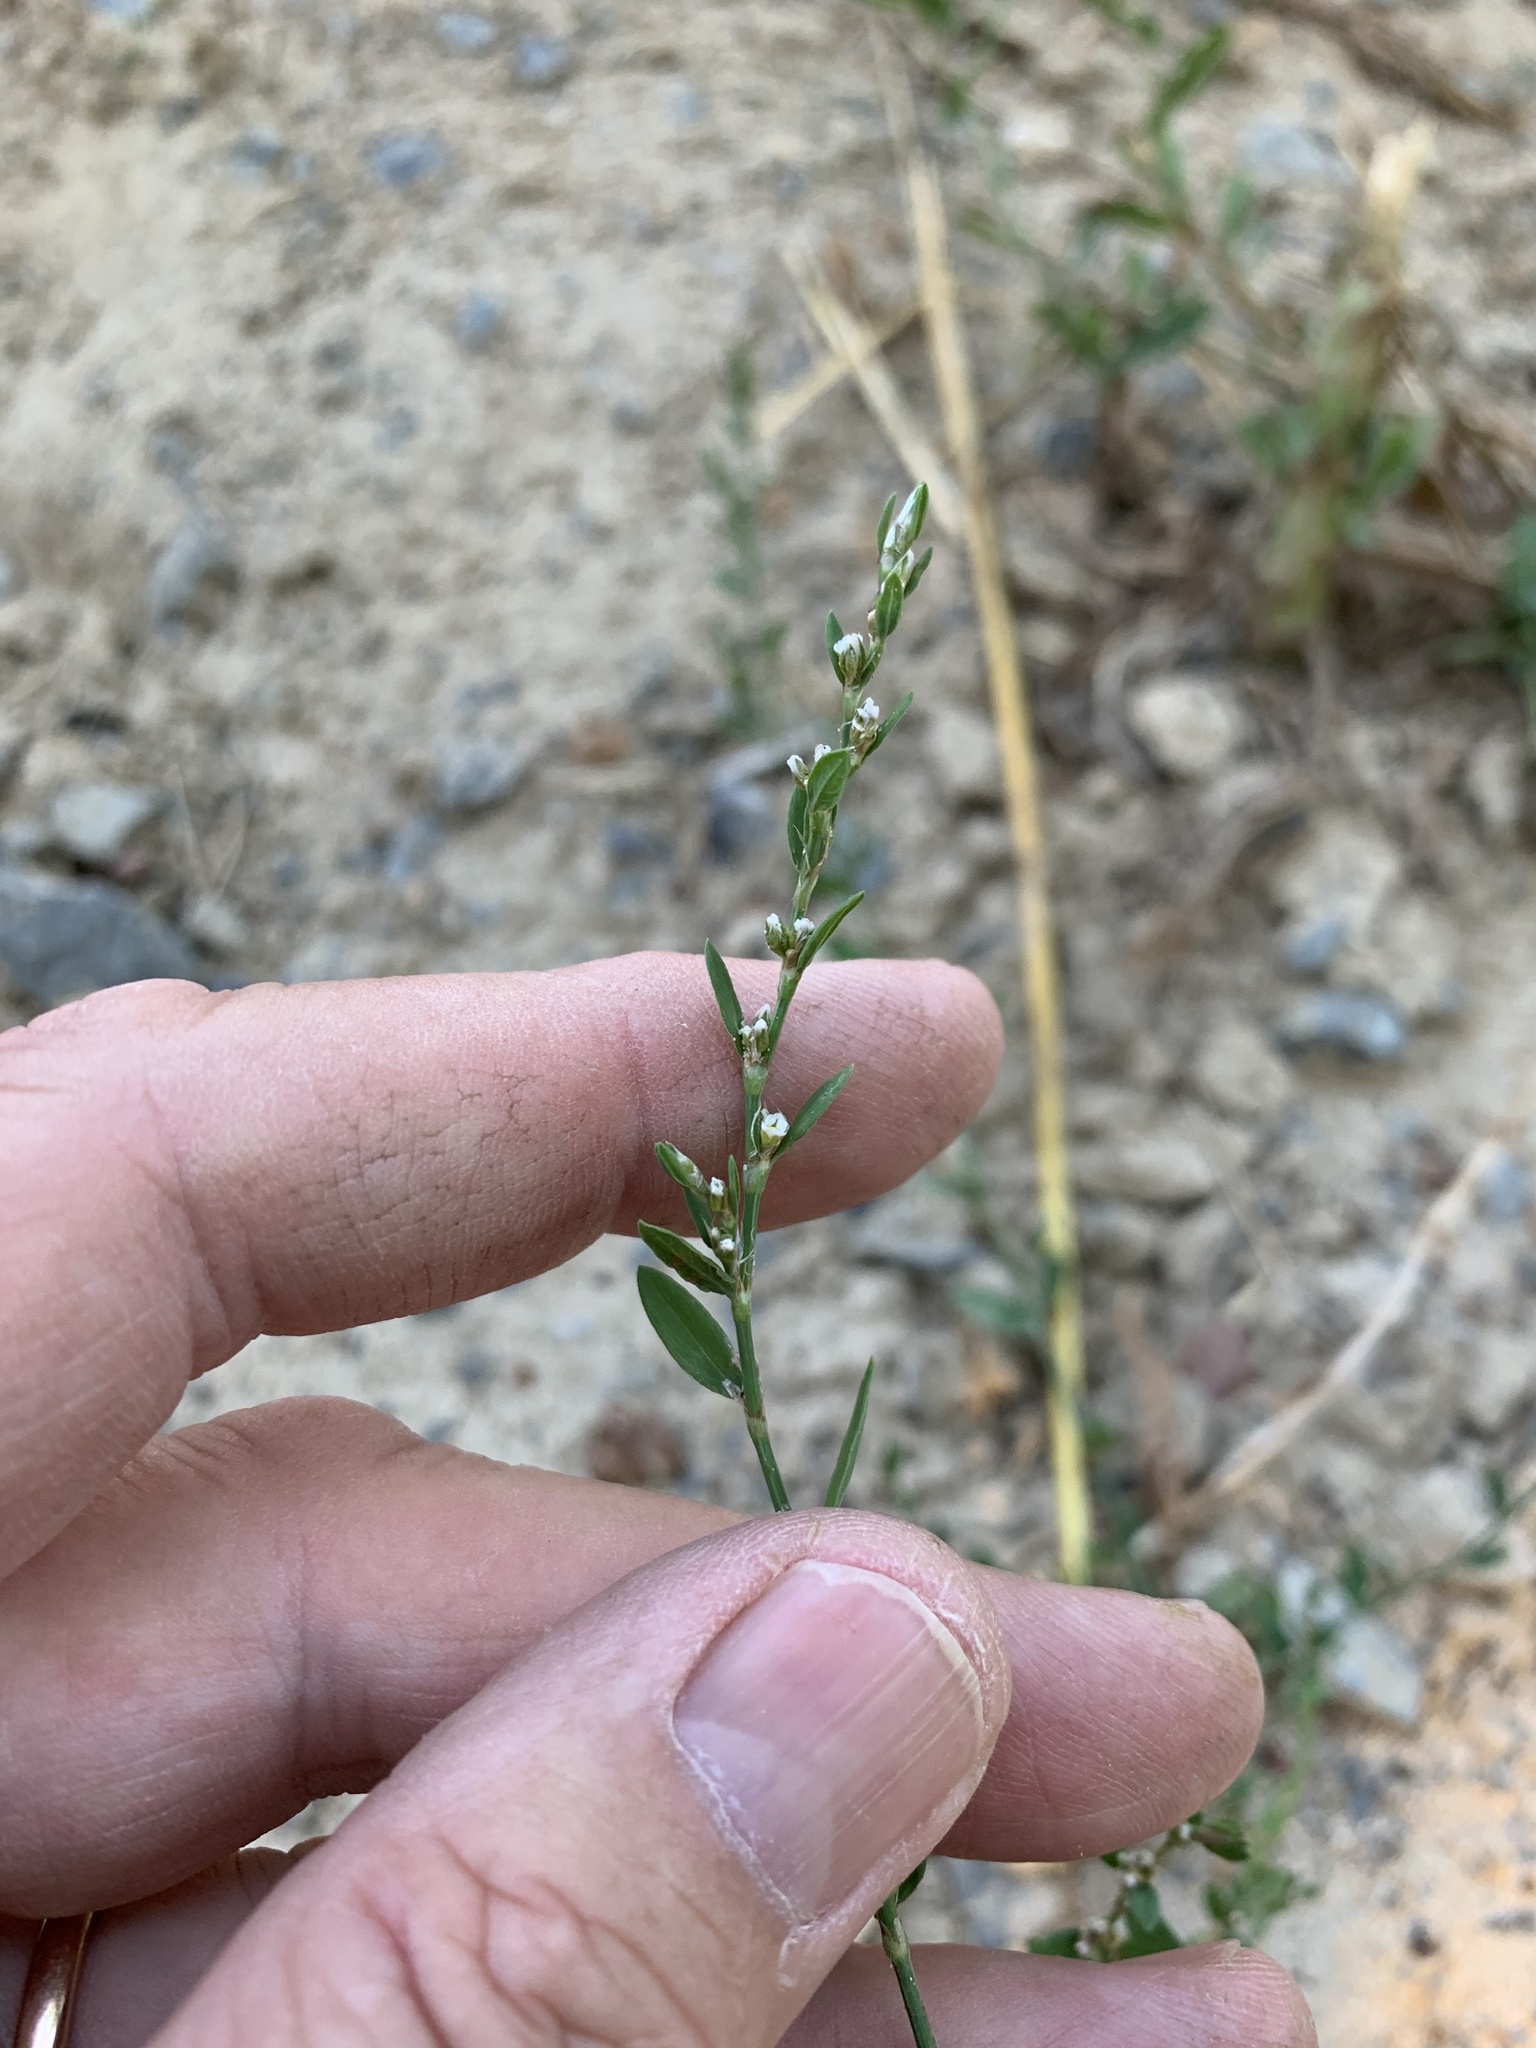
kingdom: Plantae
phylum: Tracheophyta
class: Magnoliopsida
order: Caryophyllales
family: Polygonaceae
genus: Polygonum
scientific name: Polygonum aviculare
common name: Prostrate knotweed
